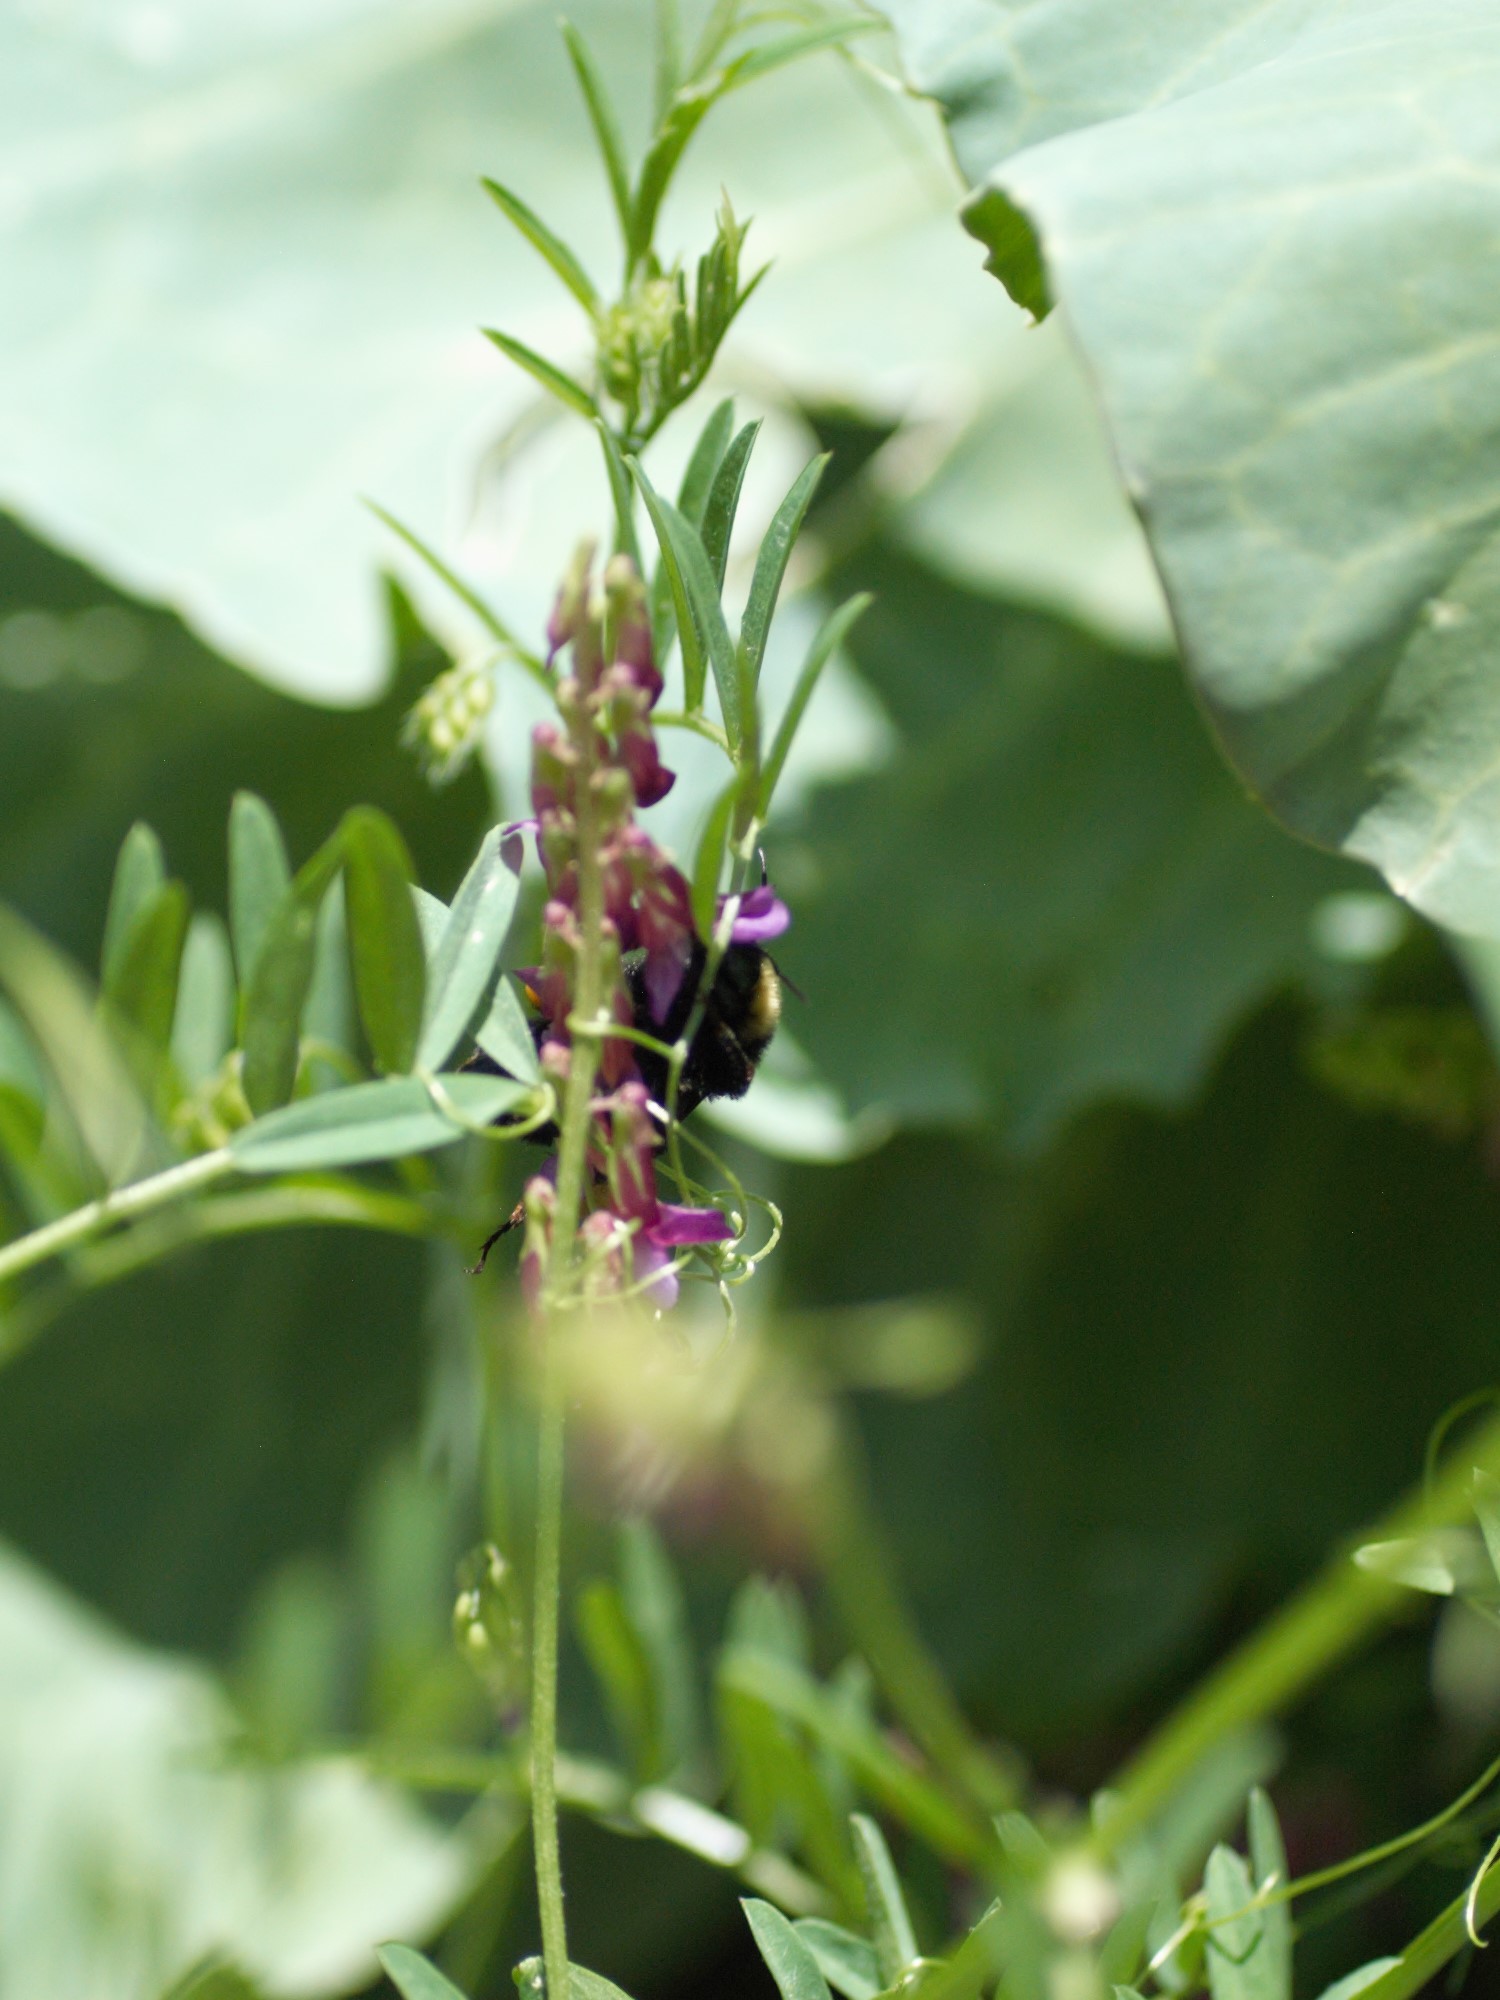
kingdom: Animalia
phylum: Arthropoda
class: Insecta
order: Hymenoptera
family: Apidae
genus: Bombus
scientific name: Bombus pensylvanicus
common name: Bumble bee
